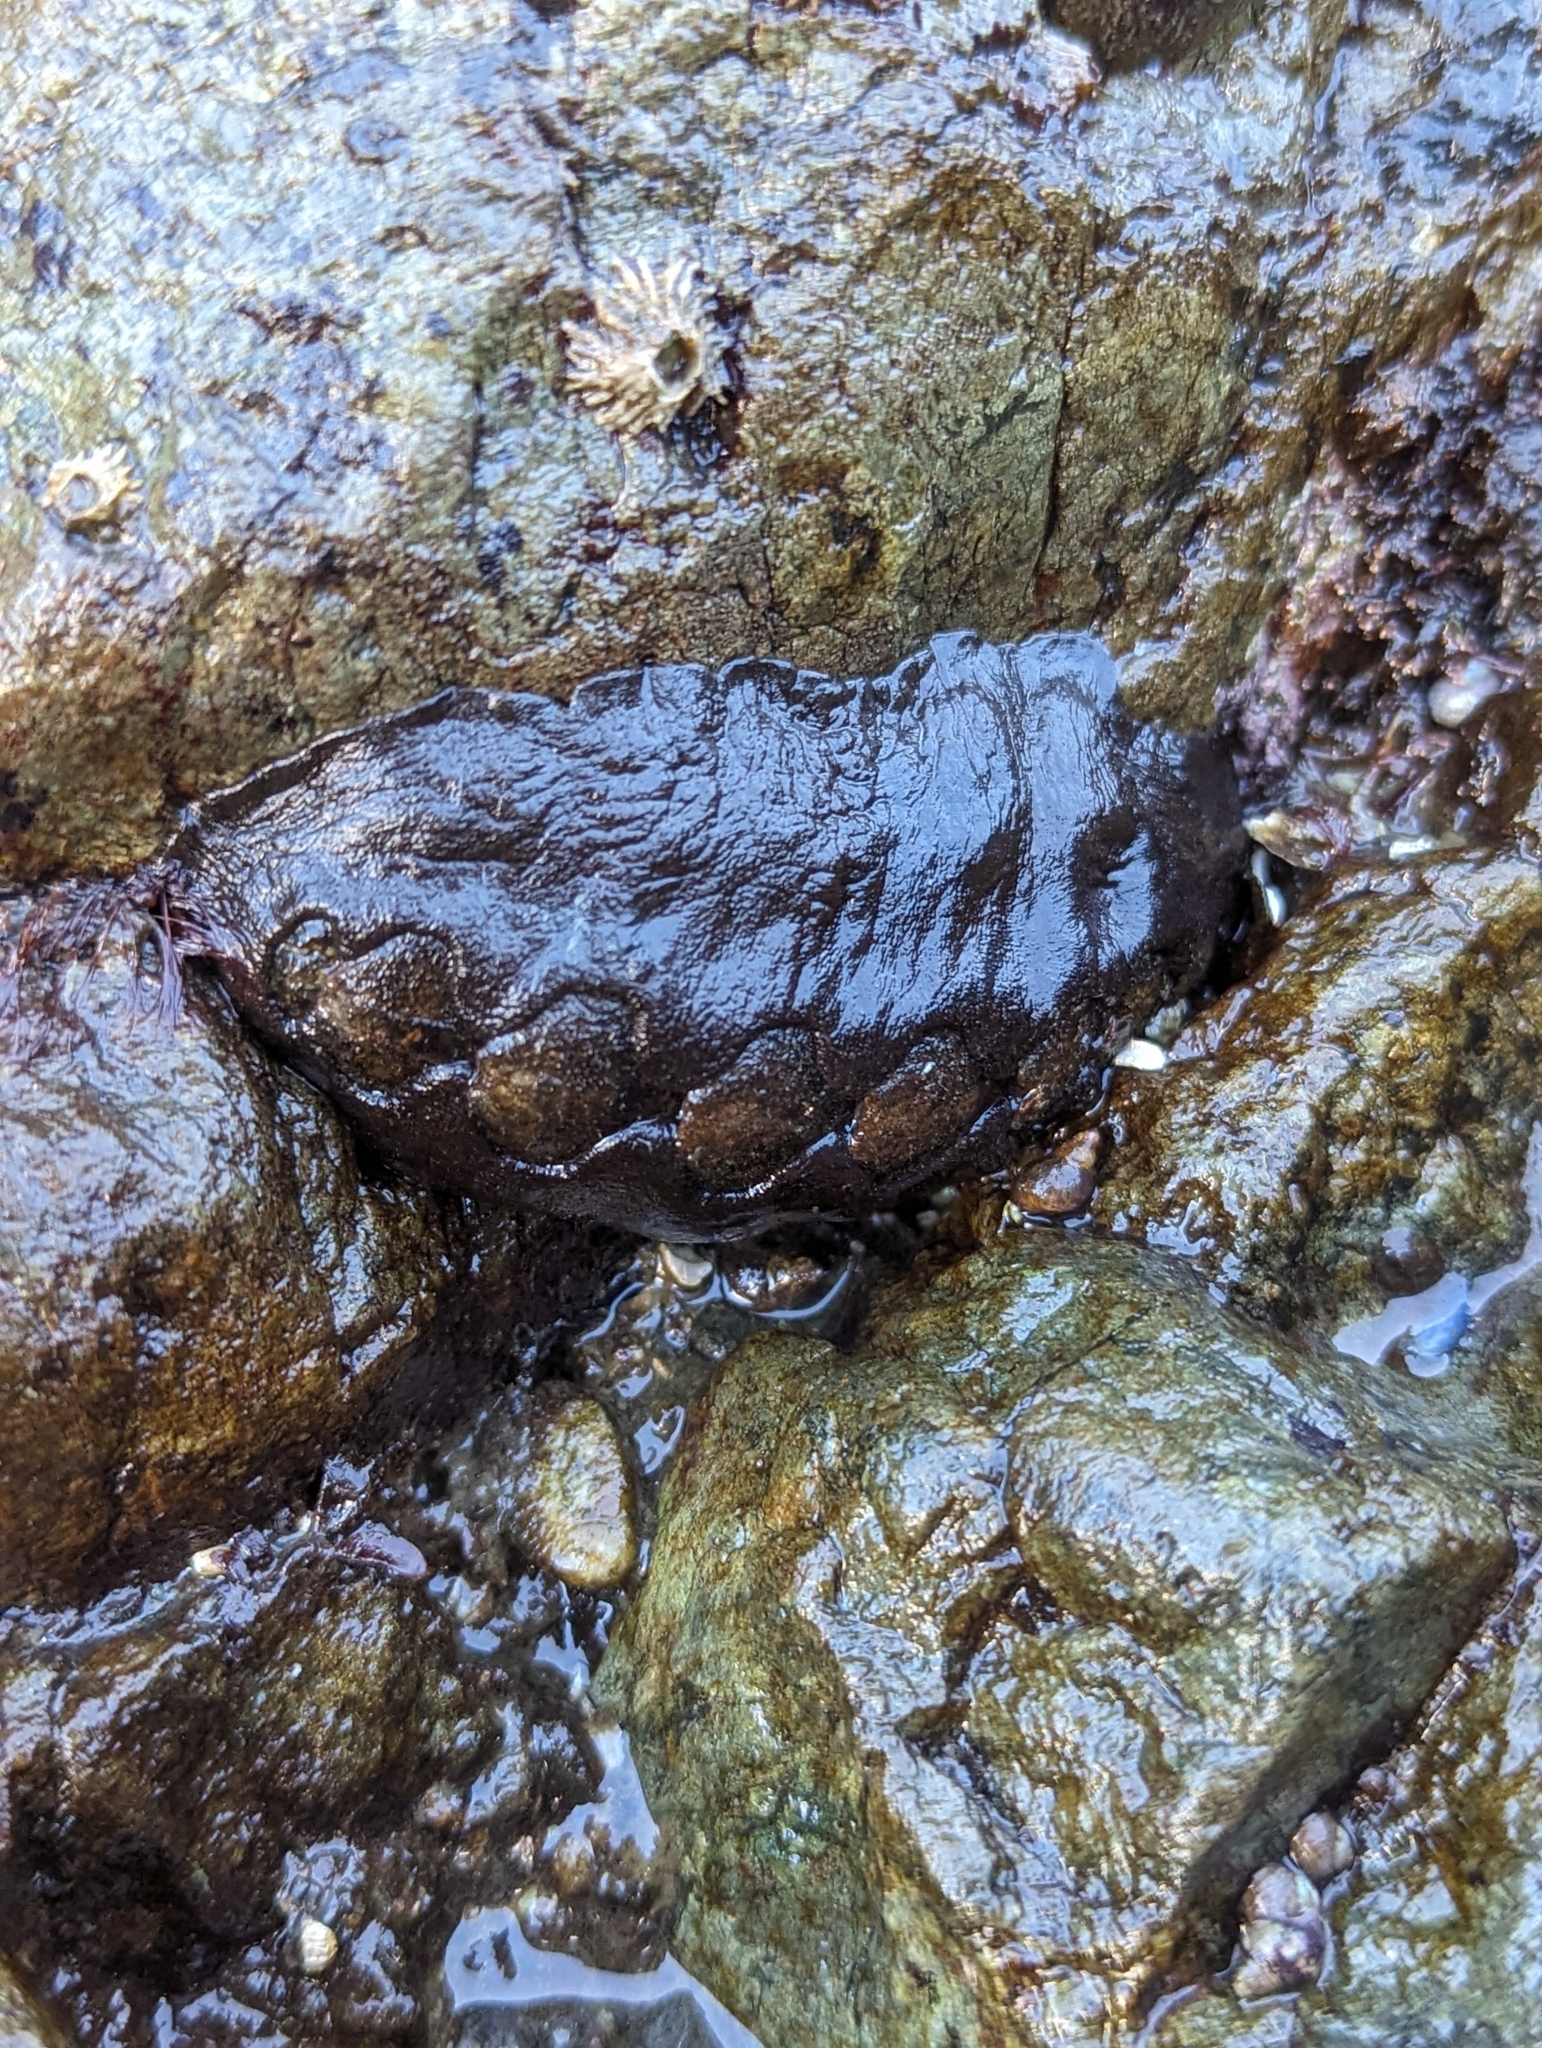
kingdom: Animalia
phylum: Mollusca
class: Polyplacophora
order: Chitonida
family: Mopaliidae
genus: Katharina
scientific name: Katharina tunicata
